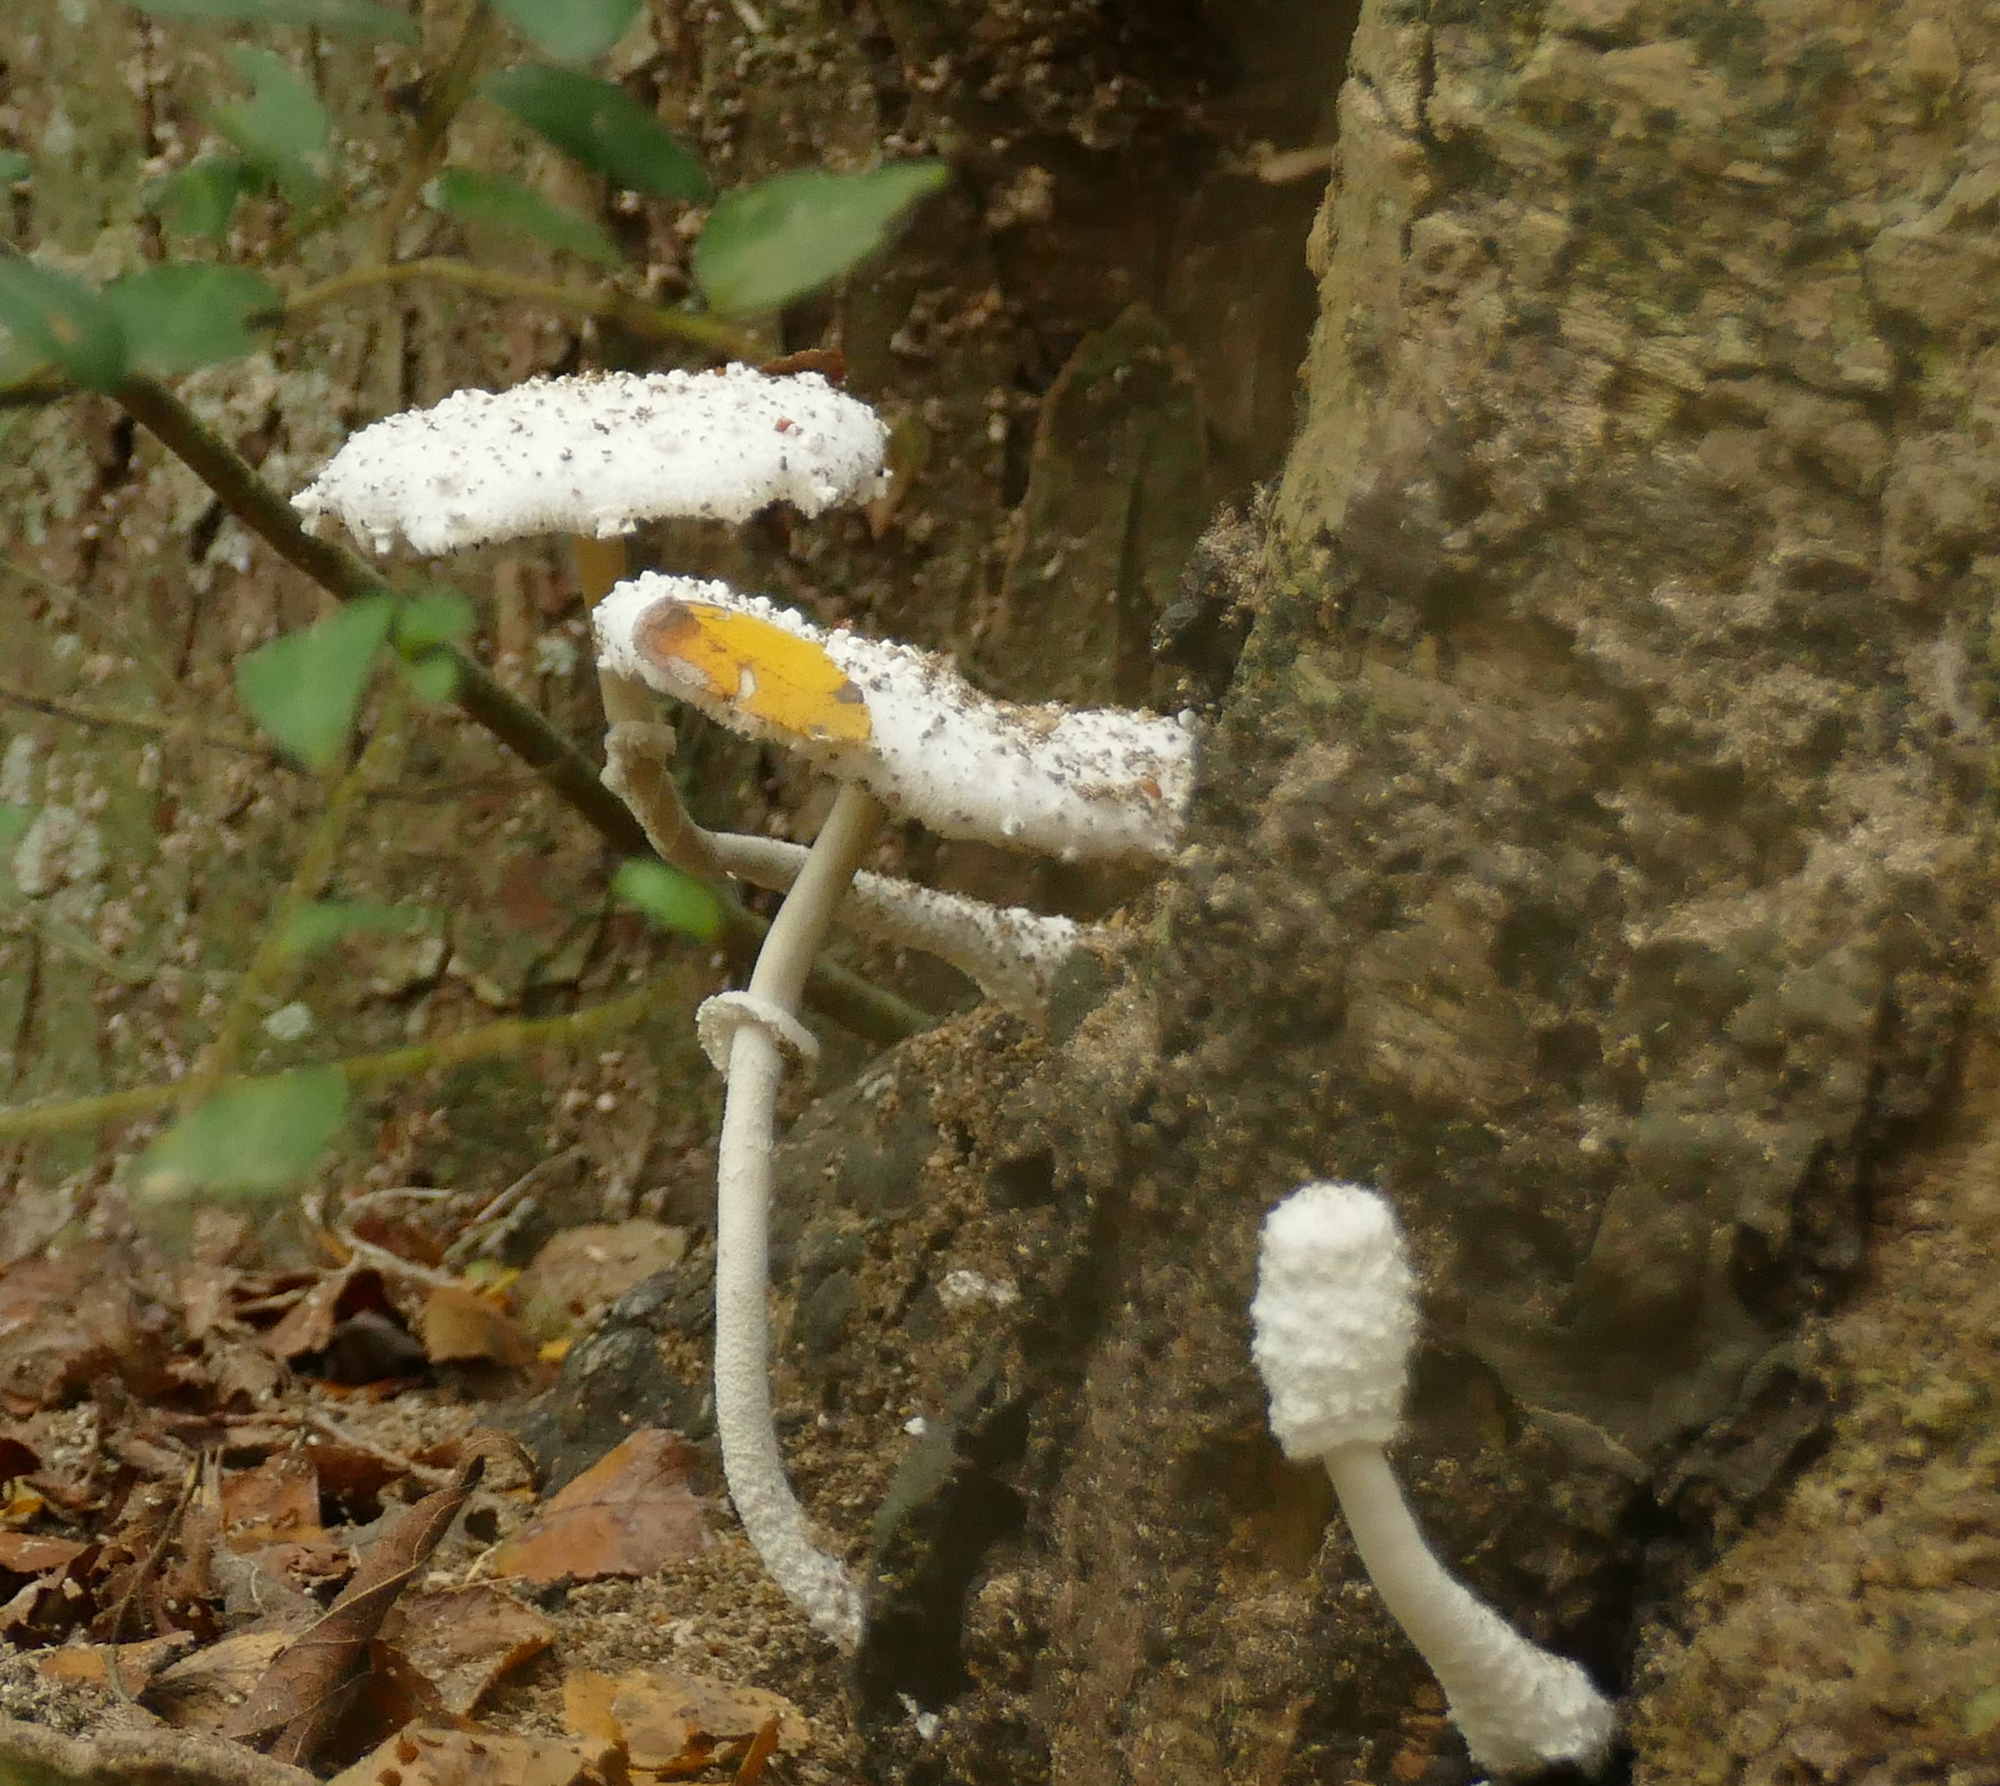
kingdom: Fungi
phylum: Basidiomycota
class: Agaricomycetes
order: Agaricales
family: Agaricaceae
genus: Leucocoprinus
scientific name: Leucocoprinus cretaceus
